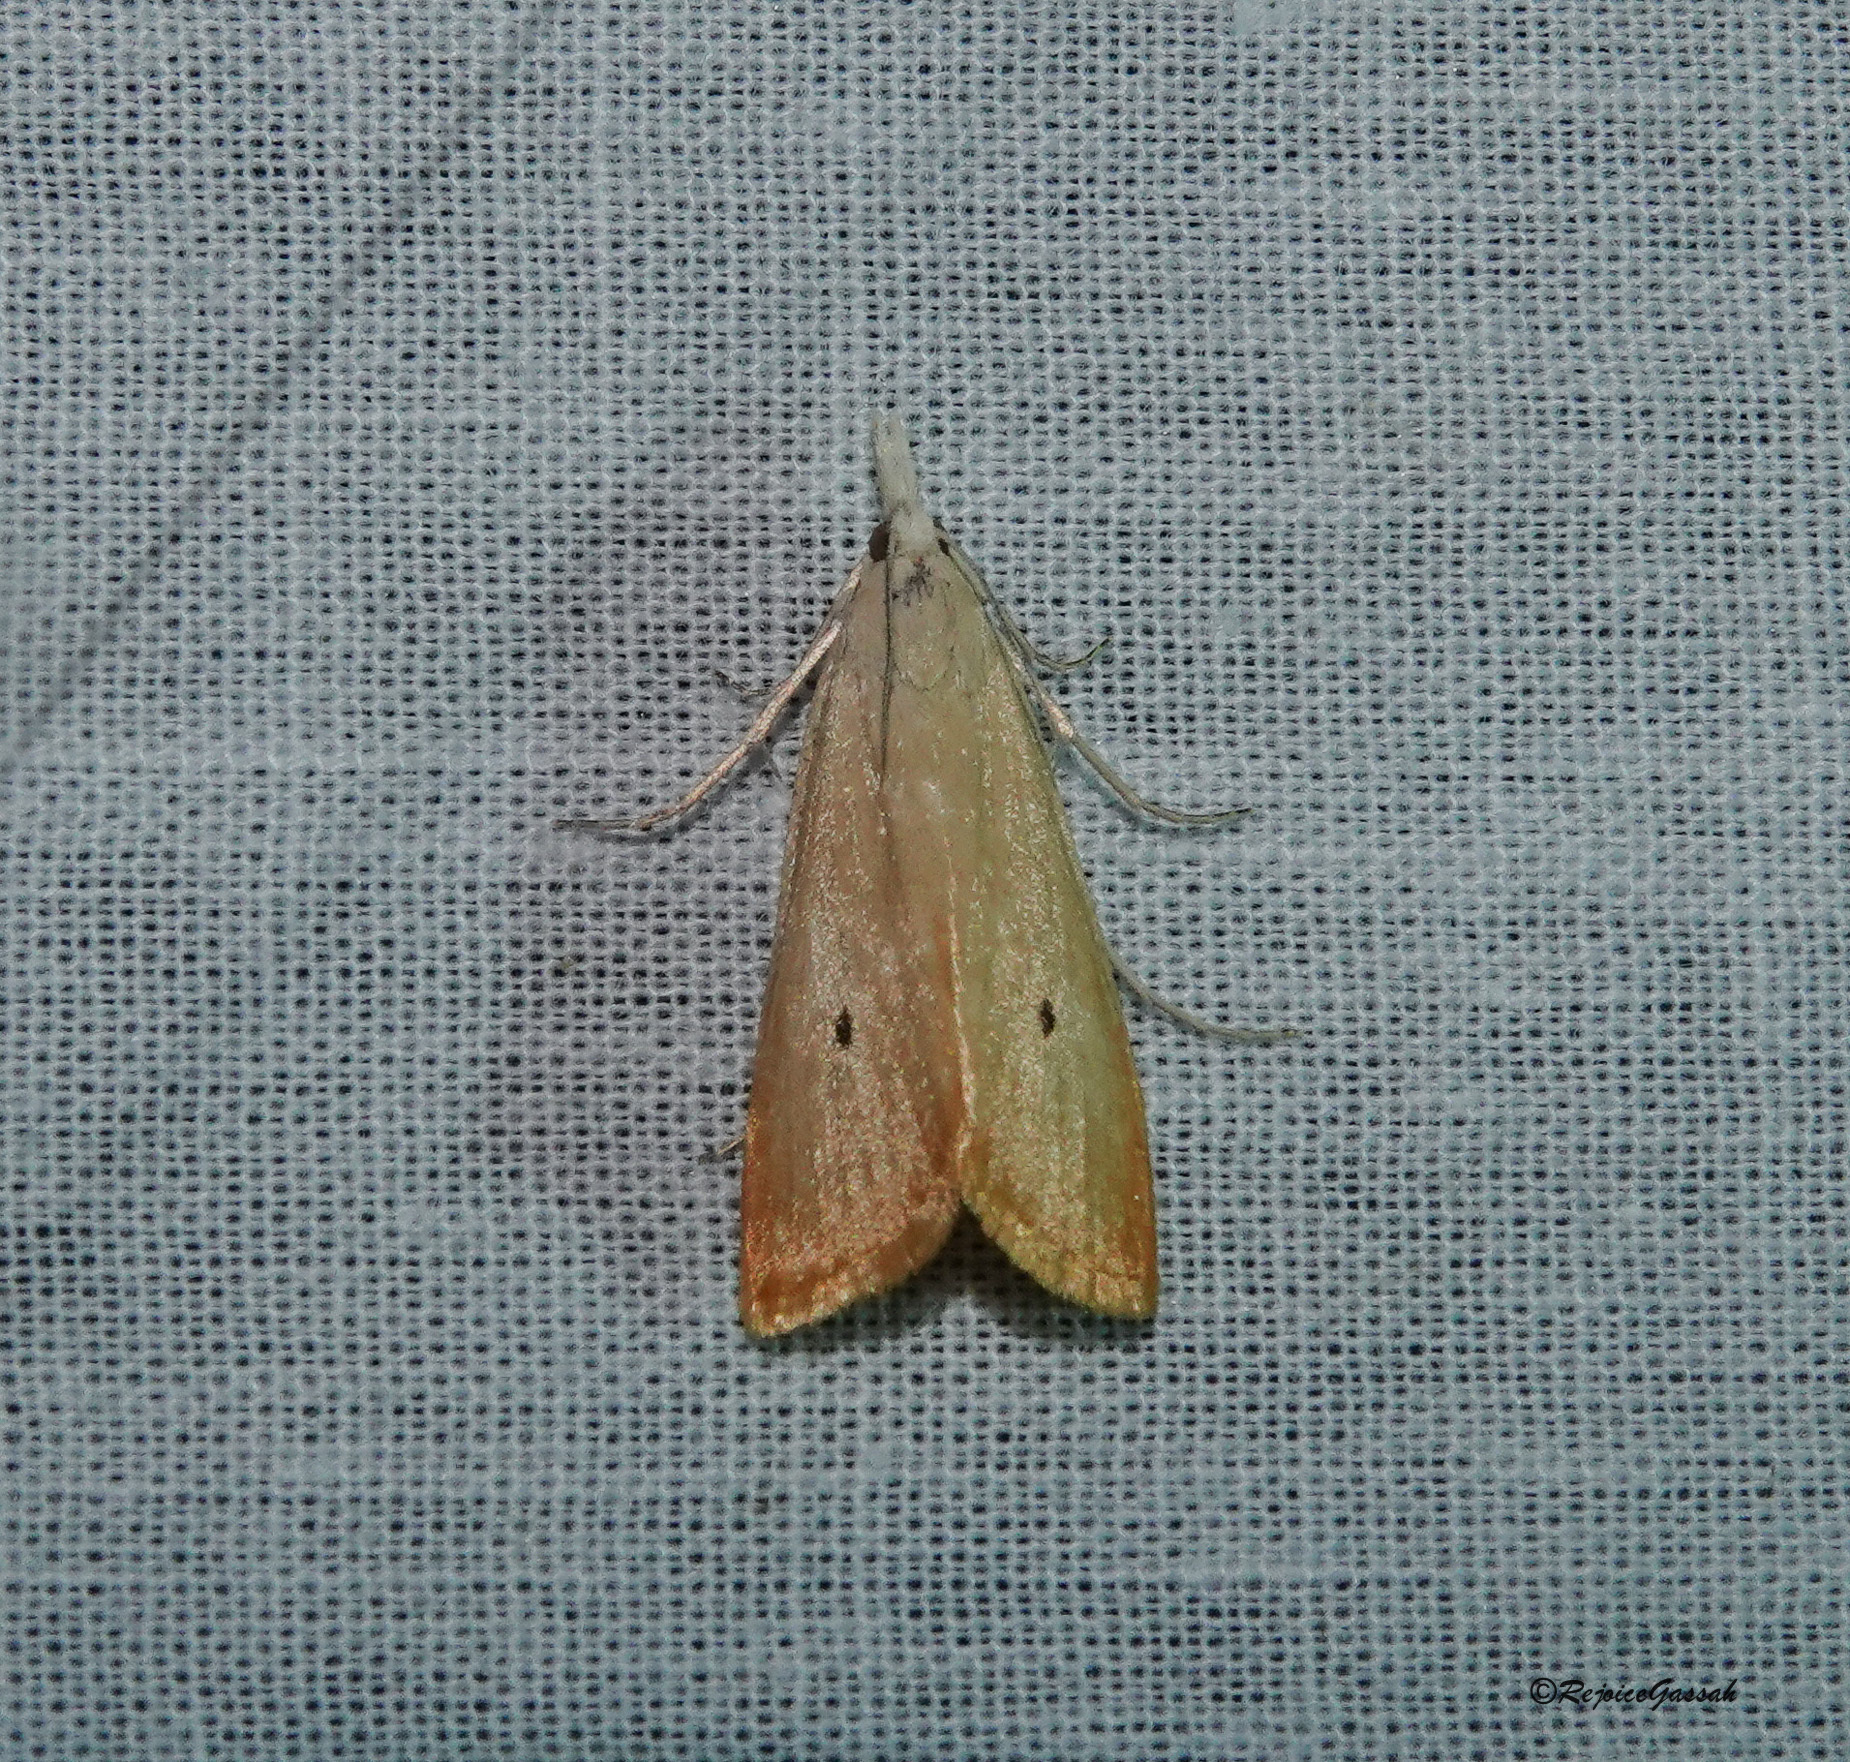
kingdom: Animalia
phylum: Arthropoda
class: Insecta
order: Lepidoptera
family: Crambidae
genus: Scirpophaga
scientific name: Scirpophaga incertulas
